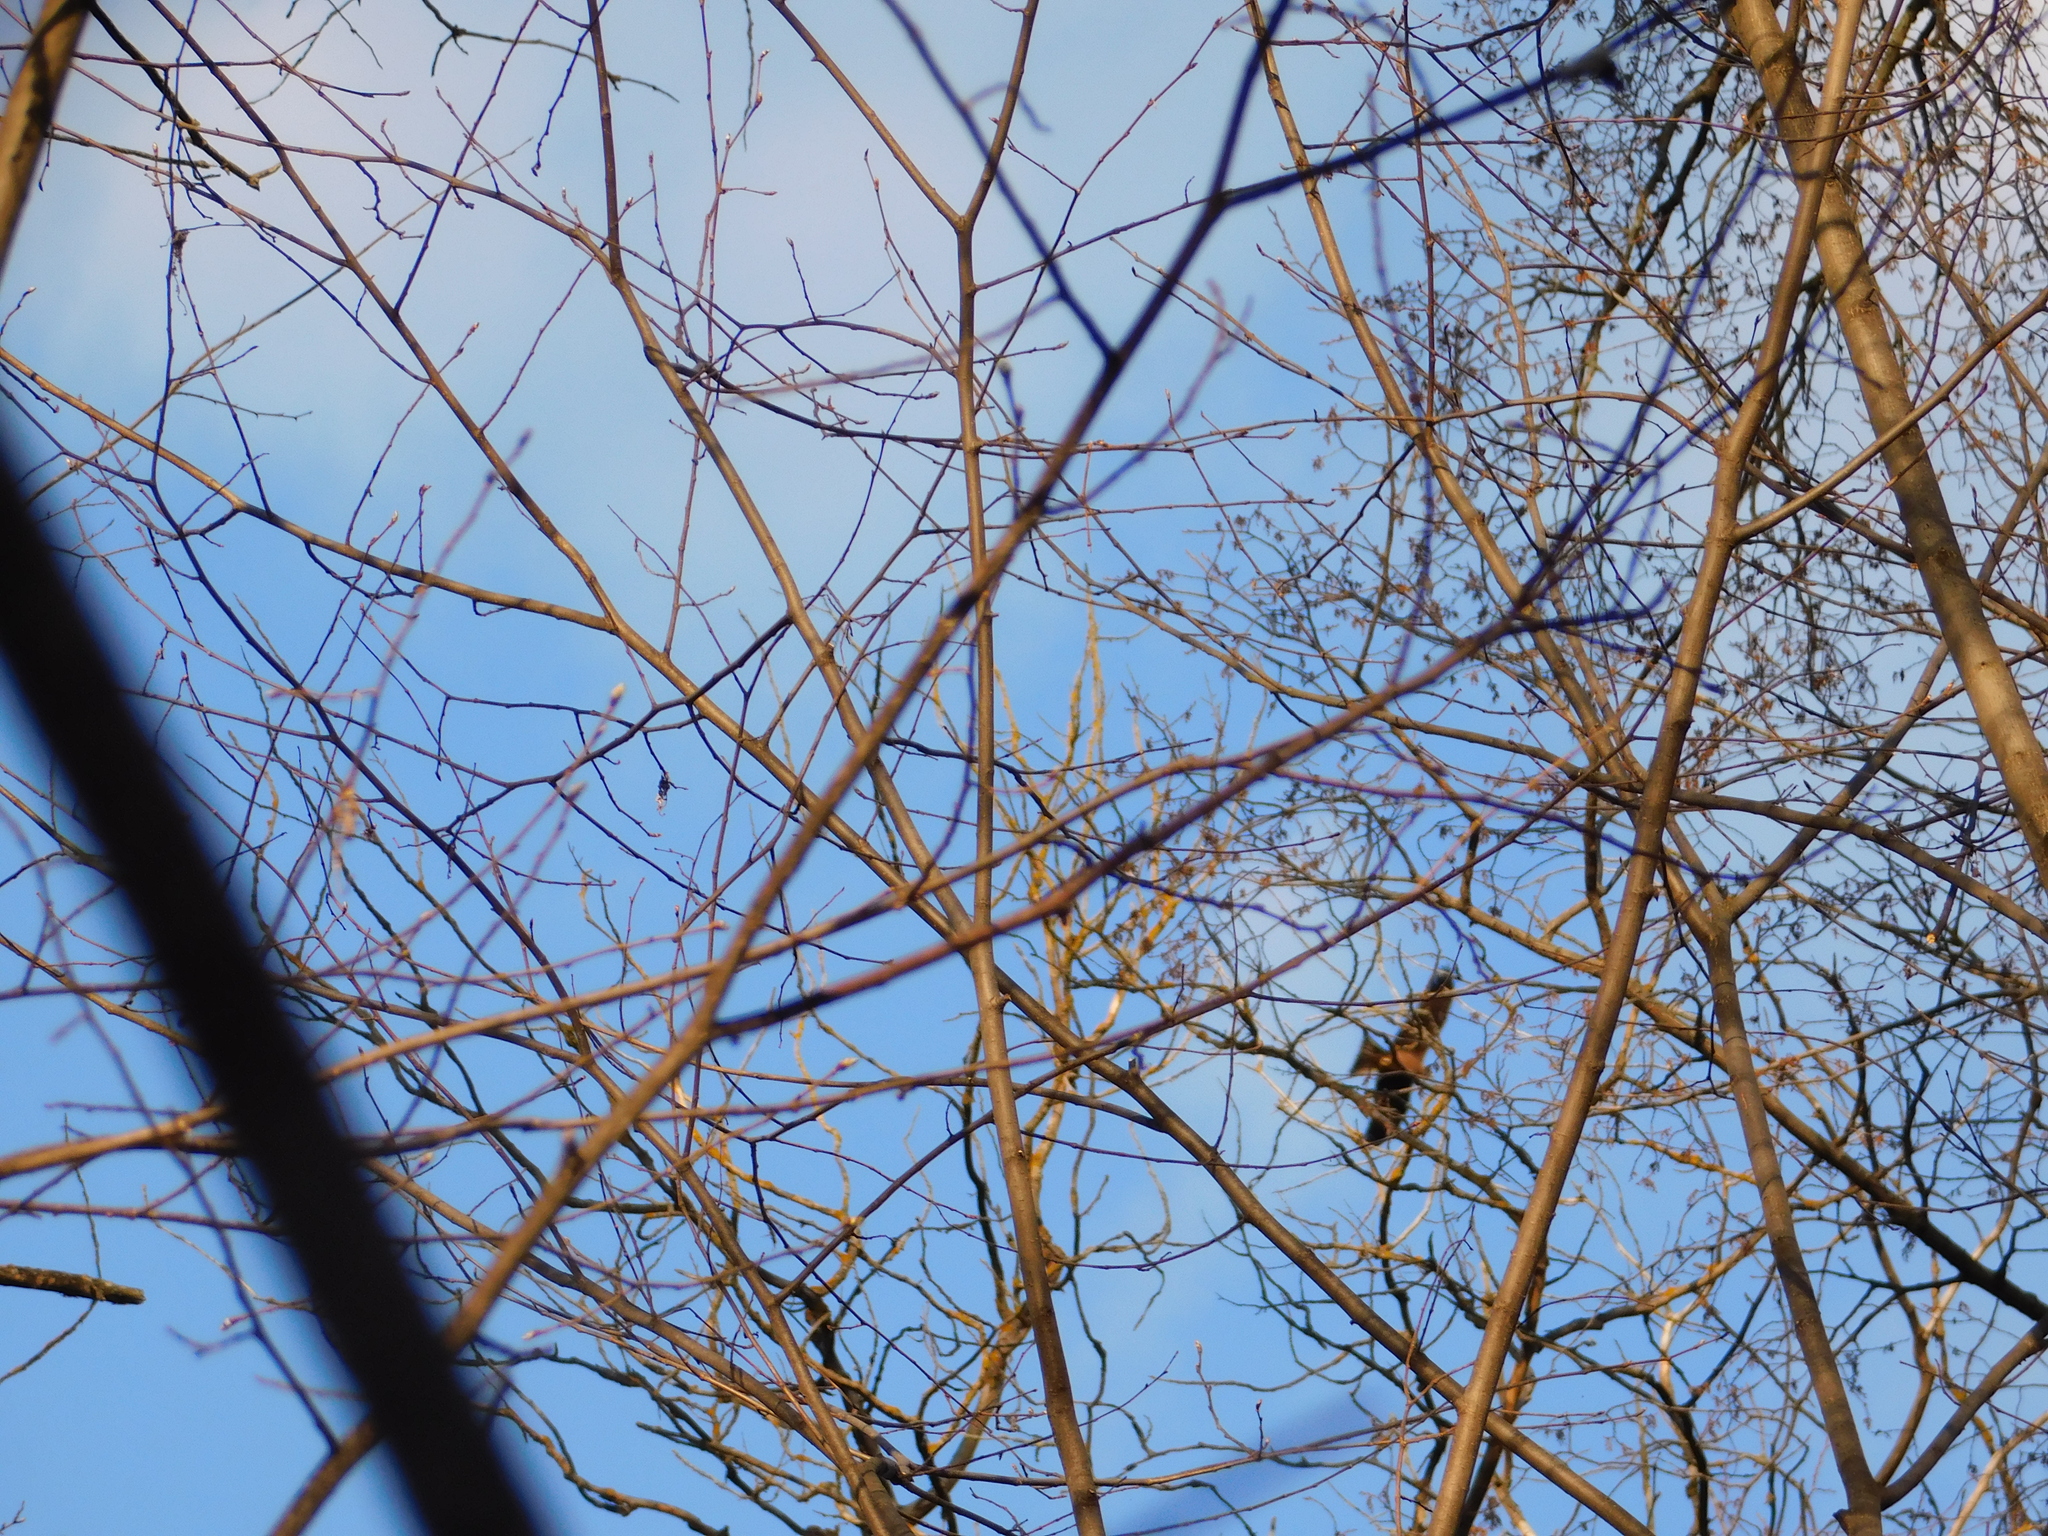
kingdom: Animalia
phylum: Chordata
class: Aves
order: Accipitriformes
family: Accipitridae
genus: Milvus
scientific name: Milvus migrans
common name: Black kite
